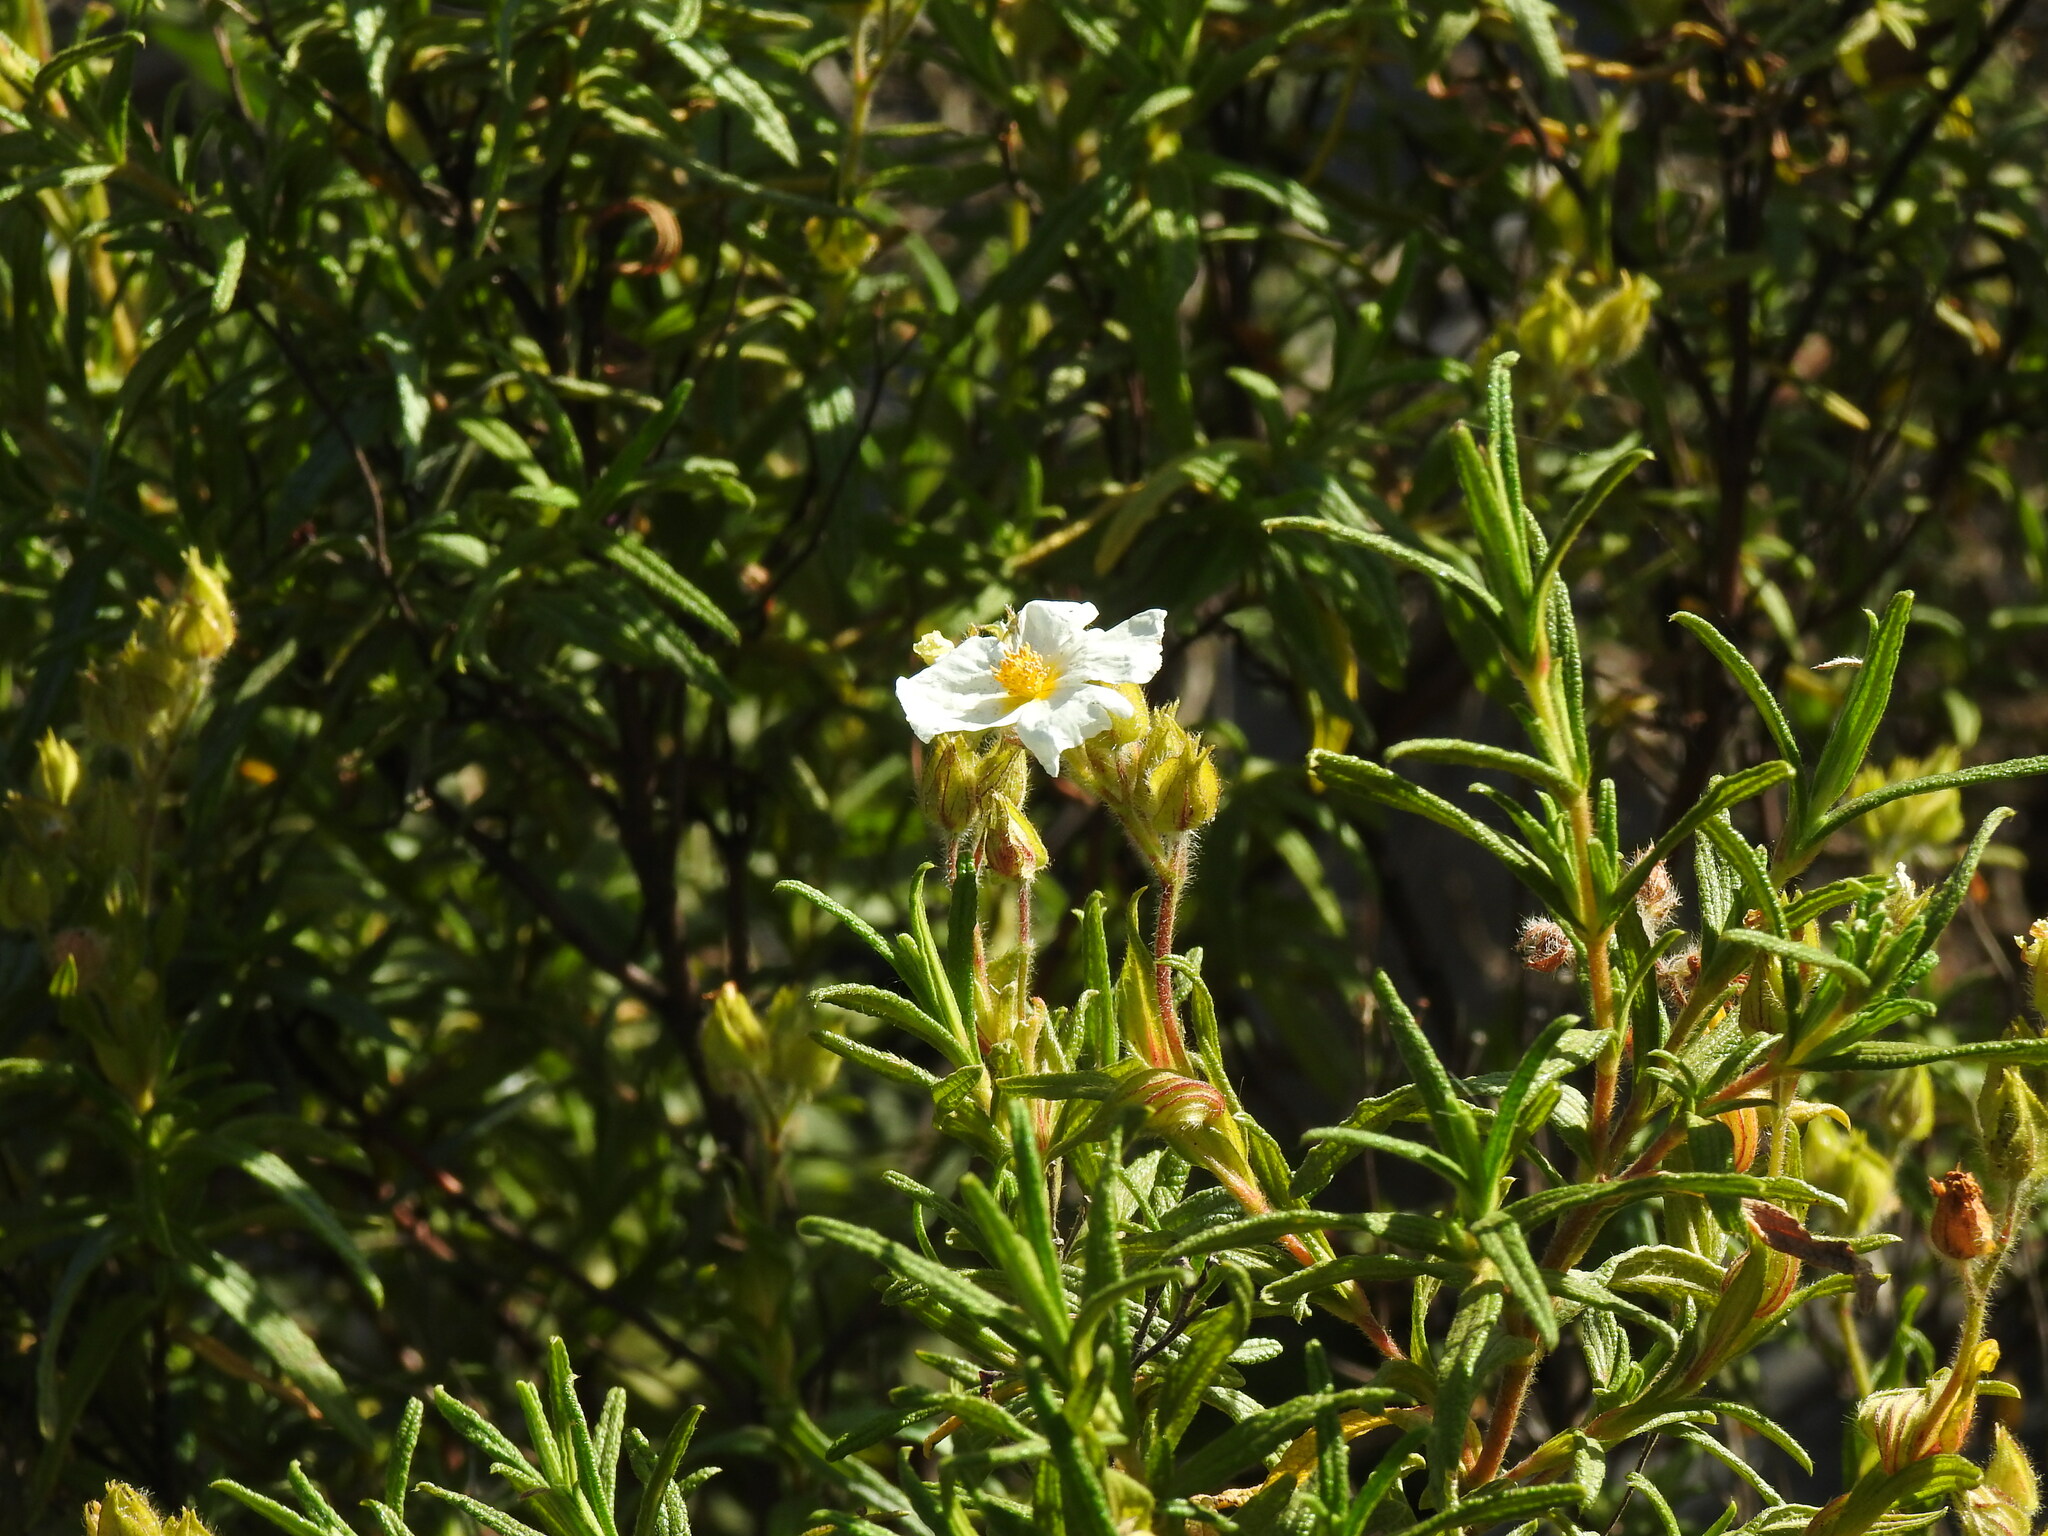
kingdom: Plantae
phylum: Tracheophyta
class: Magnoliopsida
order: Malvales
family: Cistaceae
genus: Cistus
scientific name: Cistus monspeliensis
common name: Montpelier cistus
